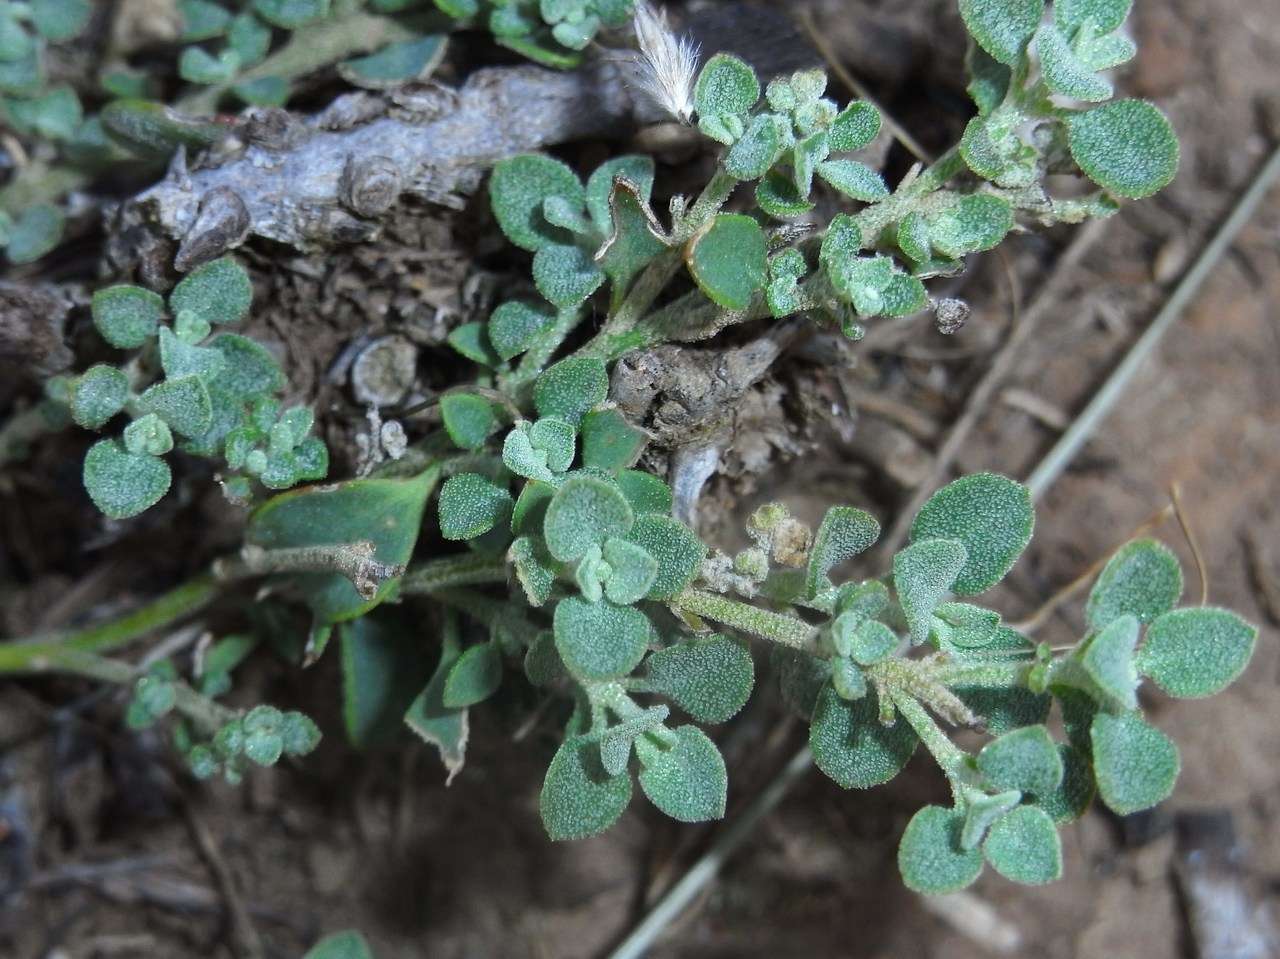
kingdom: Plantae
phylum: Tracheophyta
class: Magnoliopsida
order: Caryophyllales
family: Amaranthaceae
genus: Chenopodium
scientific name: Chenopodium desertorum
